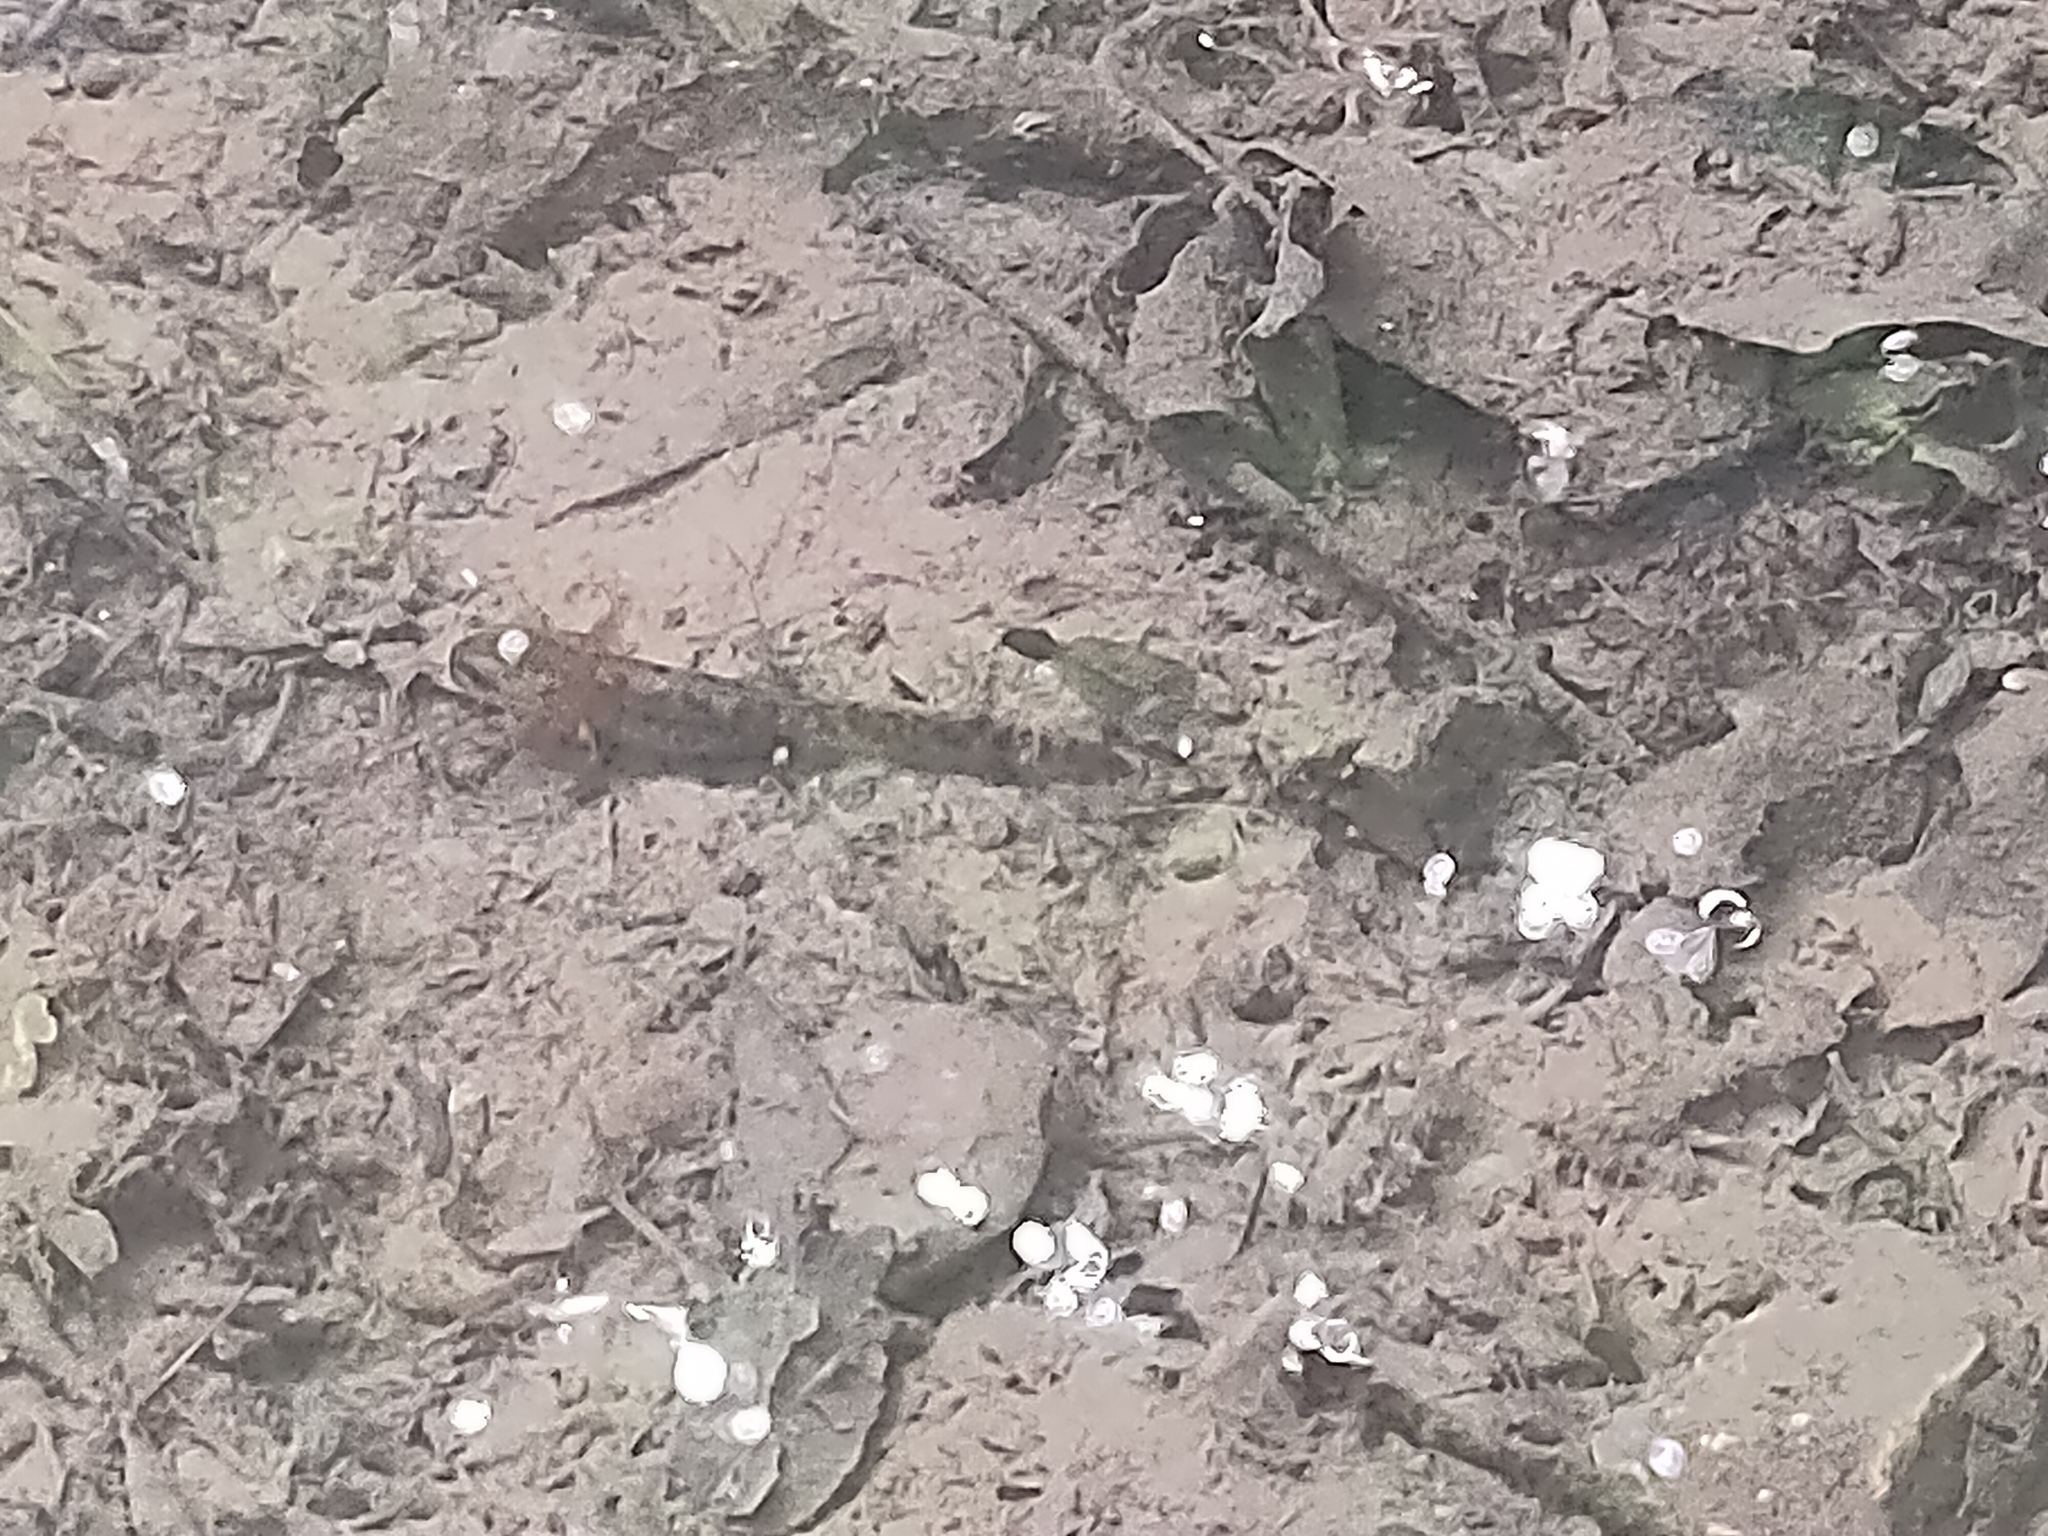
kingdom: Animalia
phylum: Chordata
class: Amphibia
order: Caudata
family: Salamandridae
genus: Salamandra
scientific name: Salamandra salamandra
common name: Fire salamander
